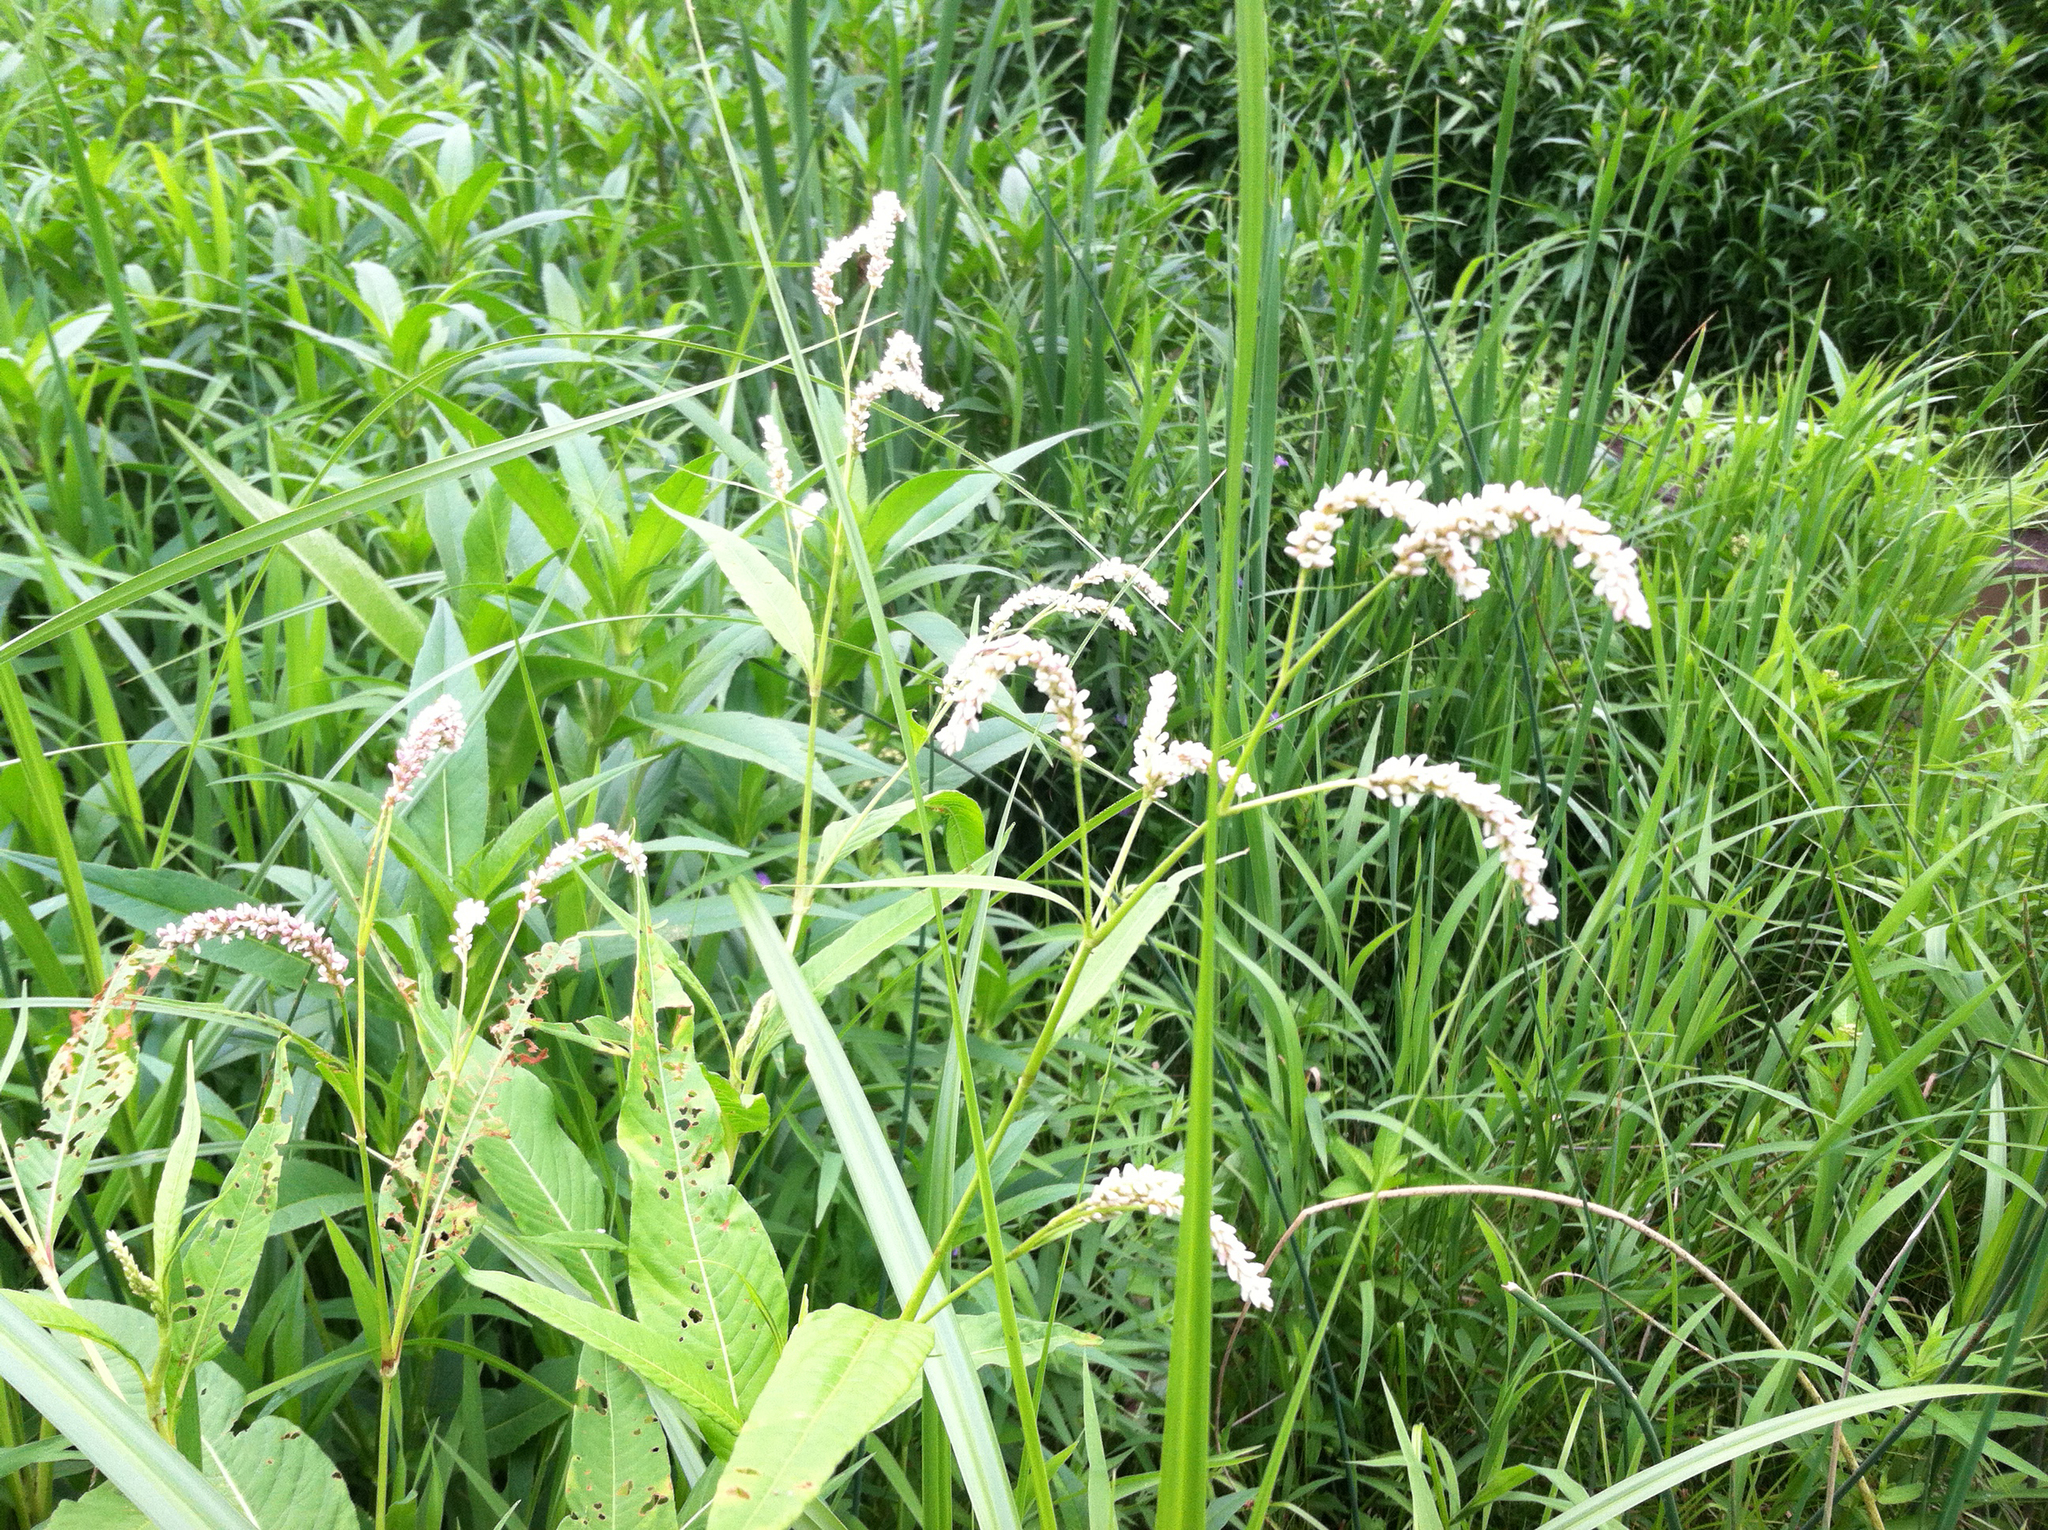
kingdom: Plantae
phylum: Tracheophyta
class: Magnoliopsida
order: Caryophyllales
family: Polygonaceae
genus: Persicaria
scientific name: Persicaria lapathifolia
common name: Curlytop knotweed
